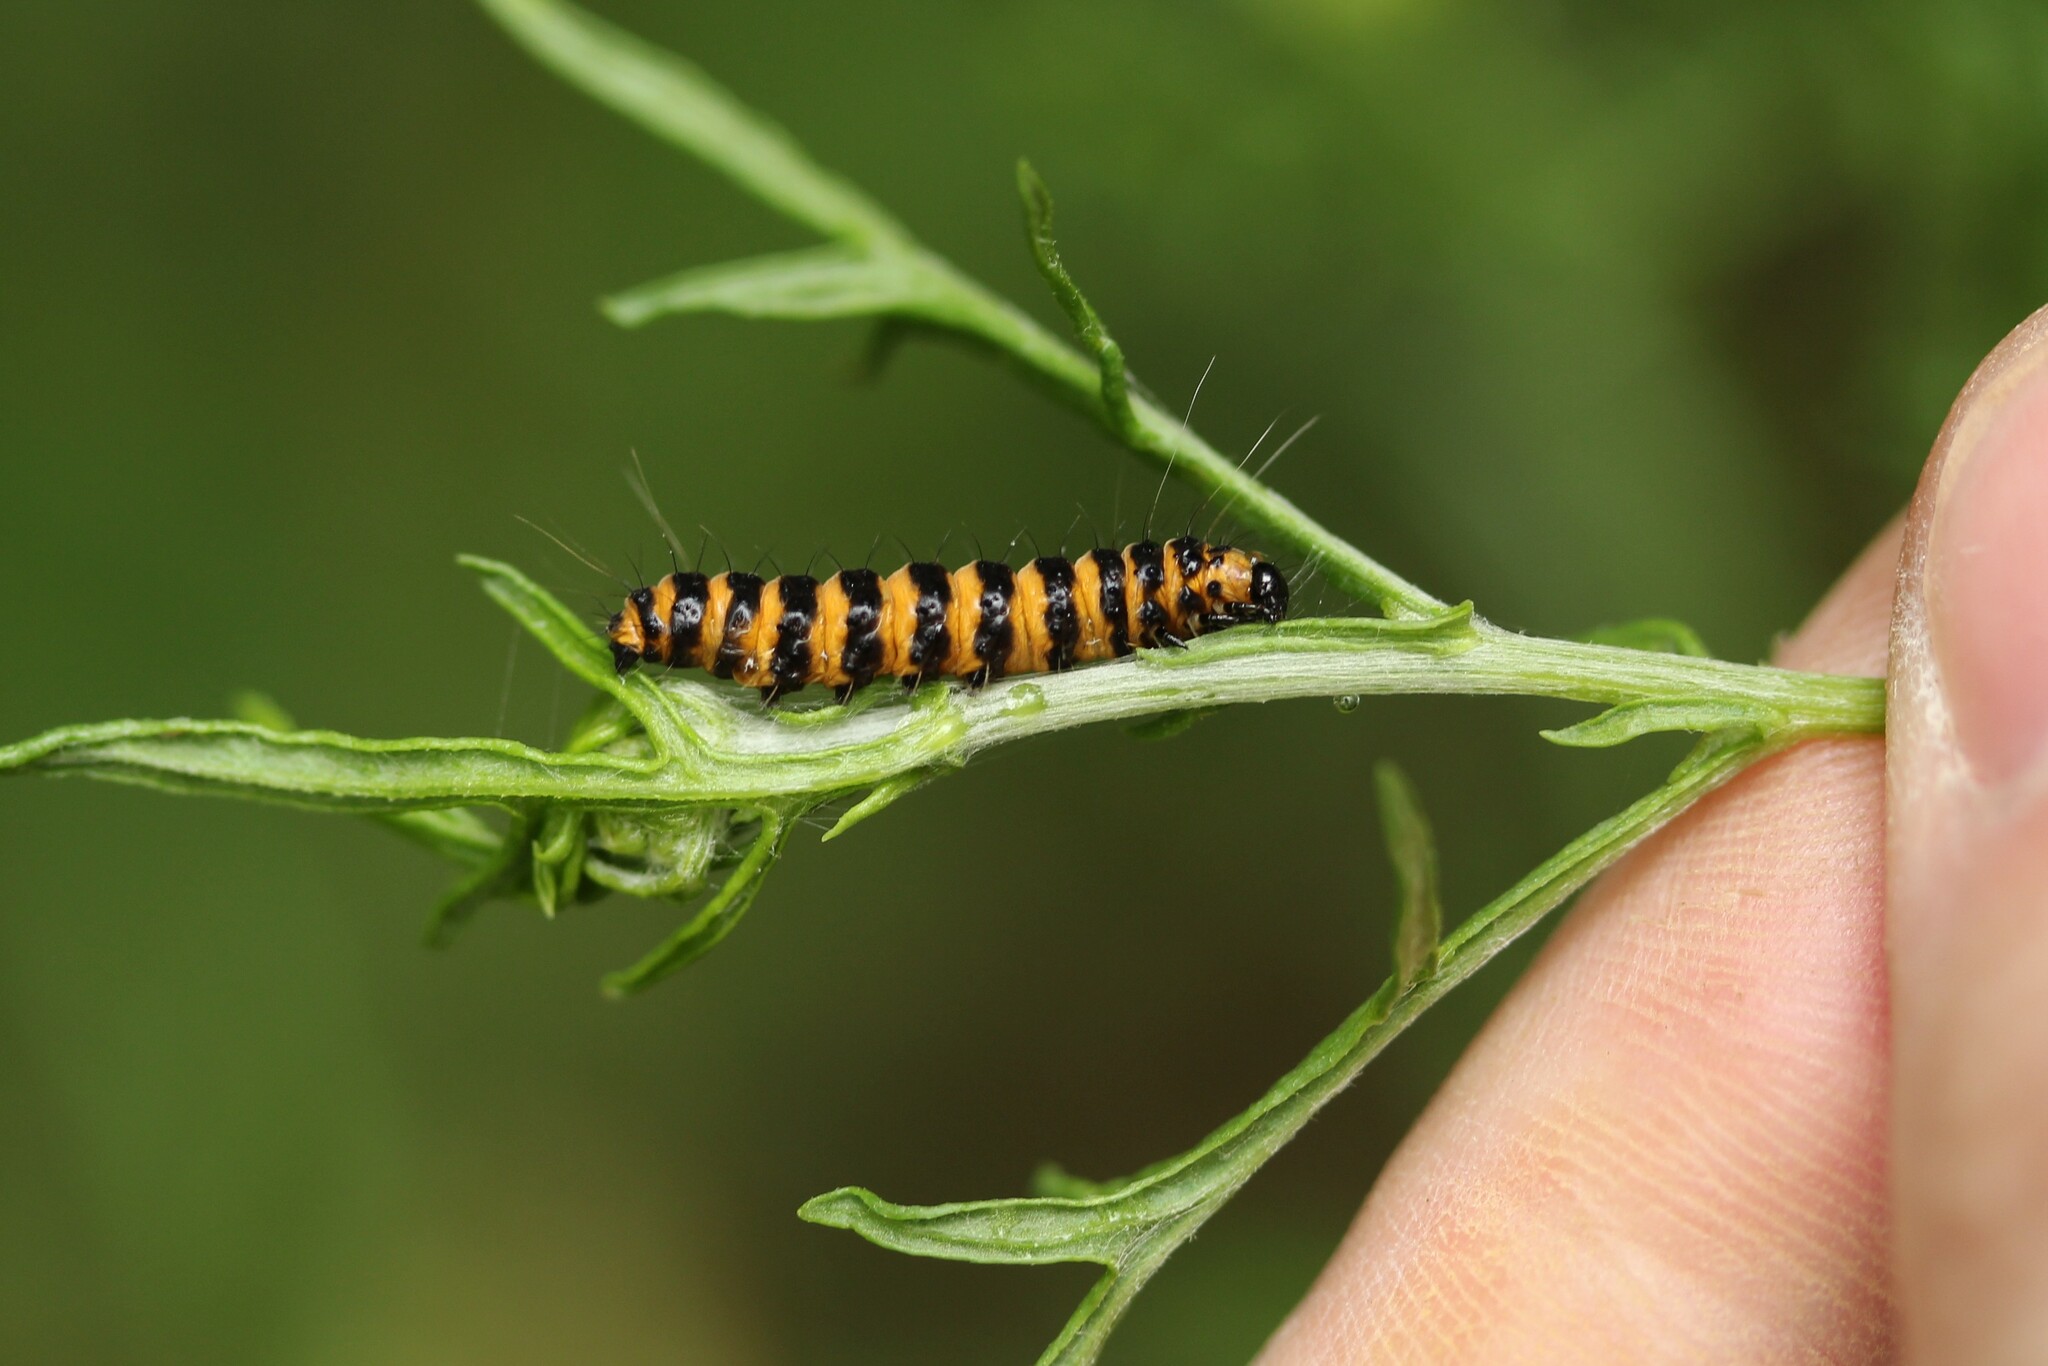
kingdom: Animalia
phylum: Arthropoda
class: Insecta
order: Lepidoptera
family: Erebidae
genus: Tyria
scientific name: Tyria jacobaeae
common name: Cinnabar
